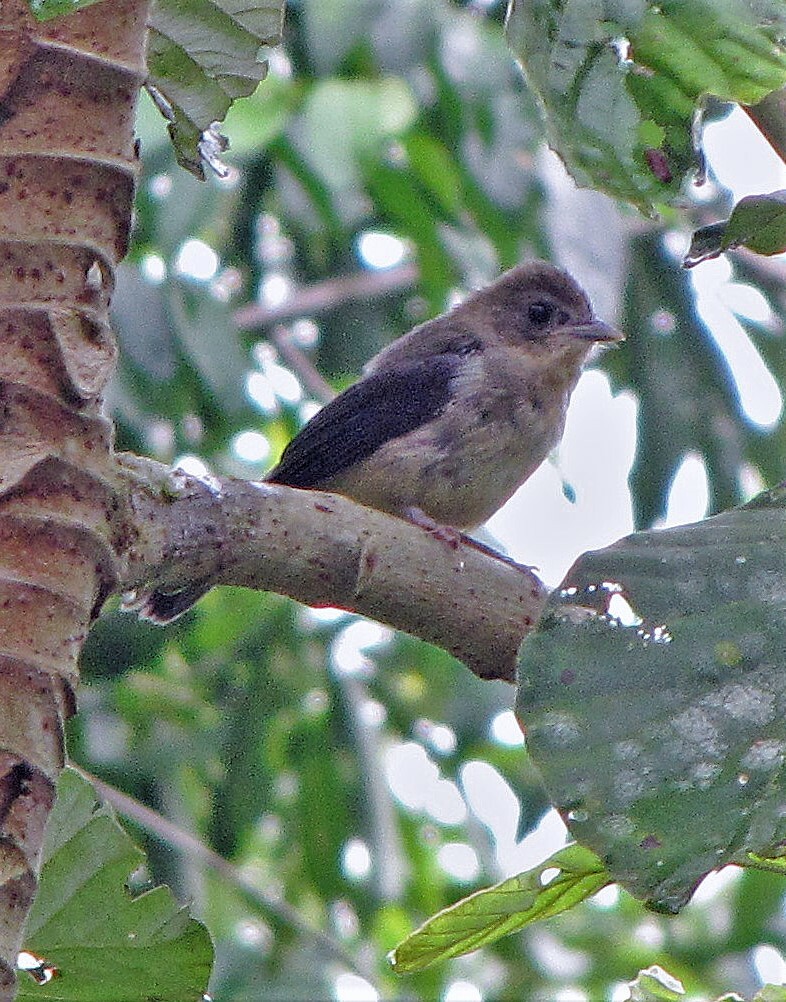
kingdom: Animalia
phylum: Chordata
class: Aves
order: Passeriformes
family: Thraupidae
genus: Trichothraupis
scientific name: Trichothraupis melanops
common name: Black-goggled tanager
